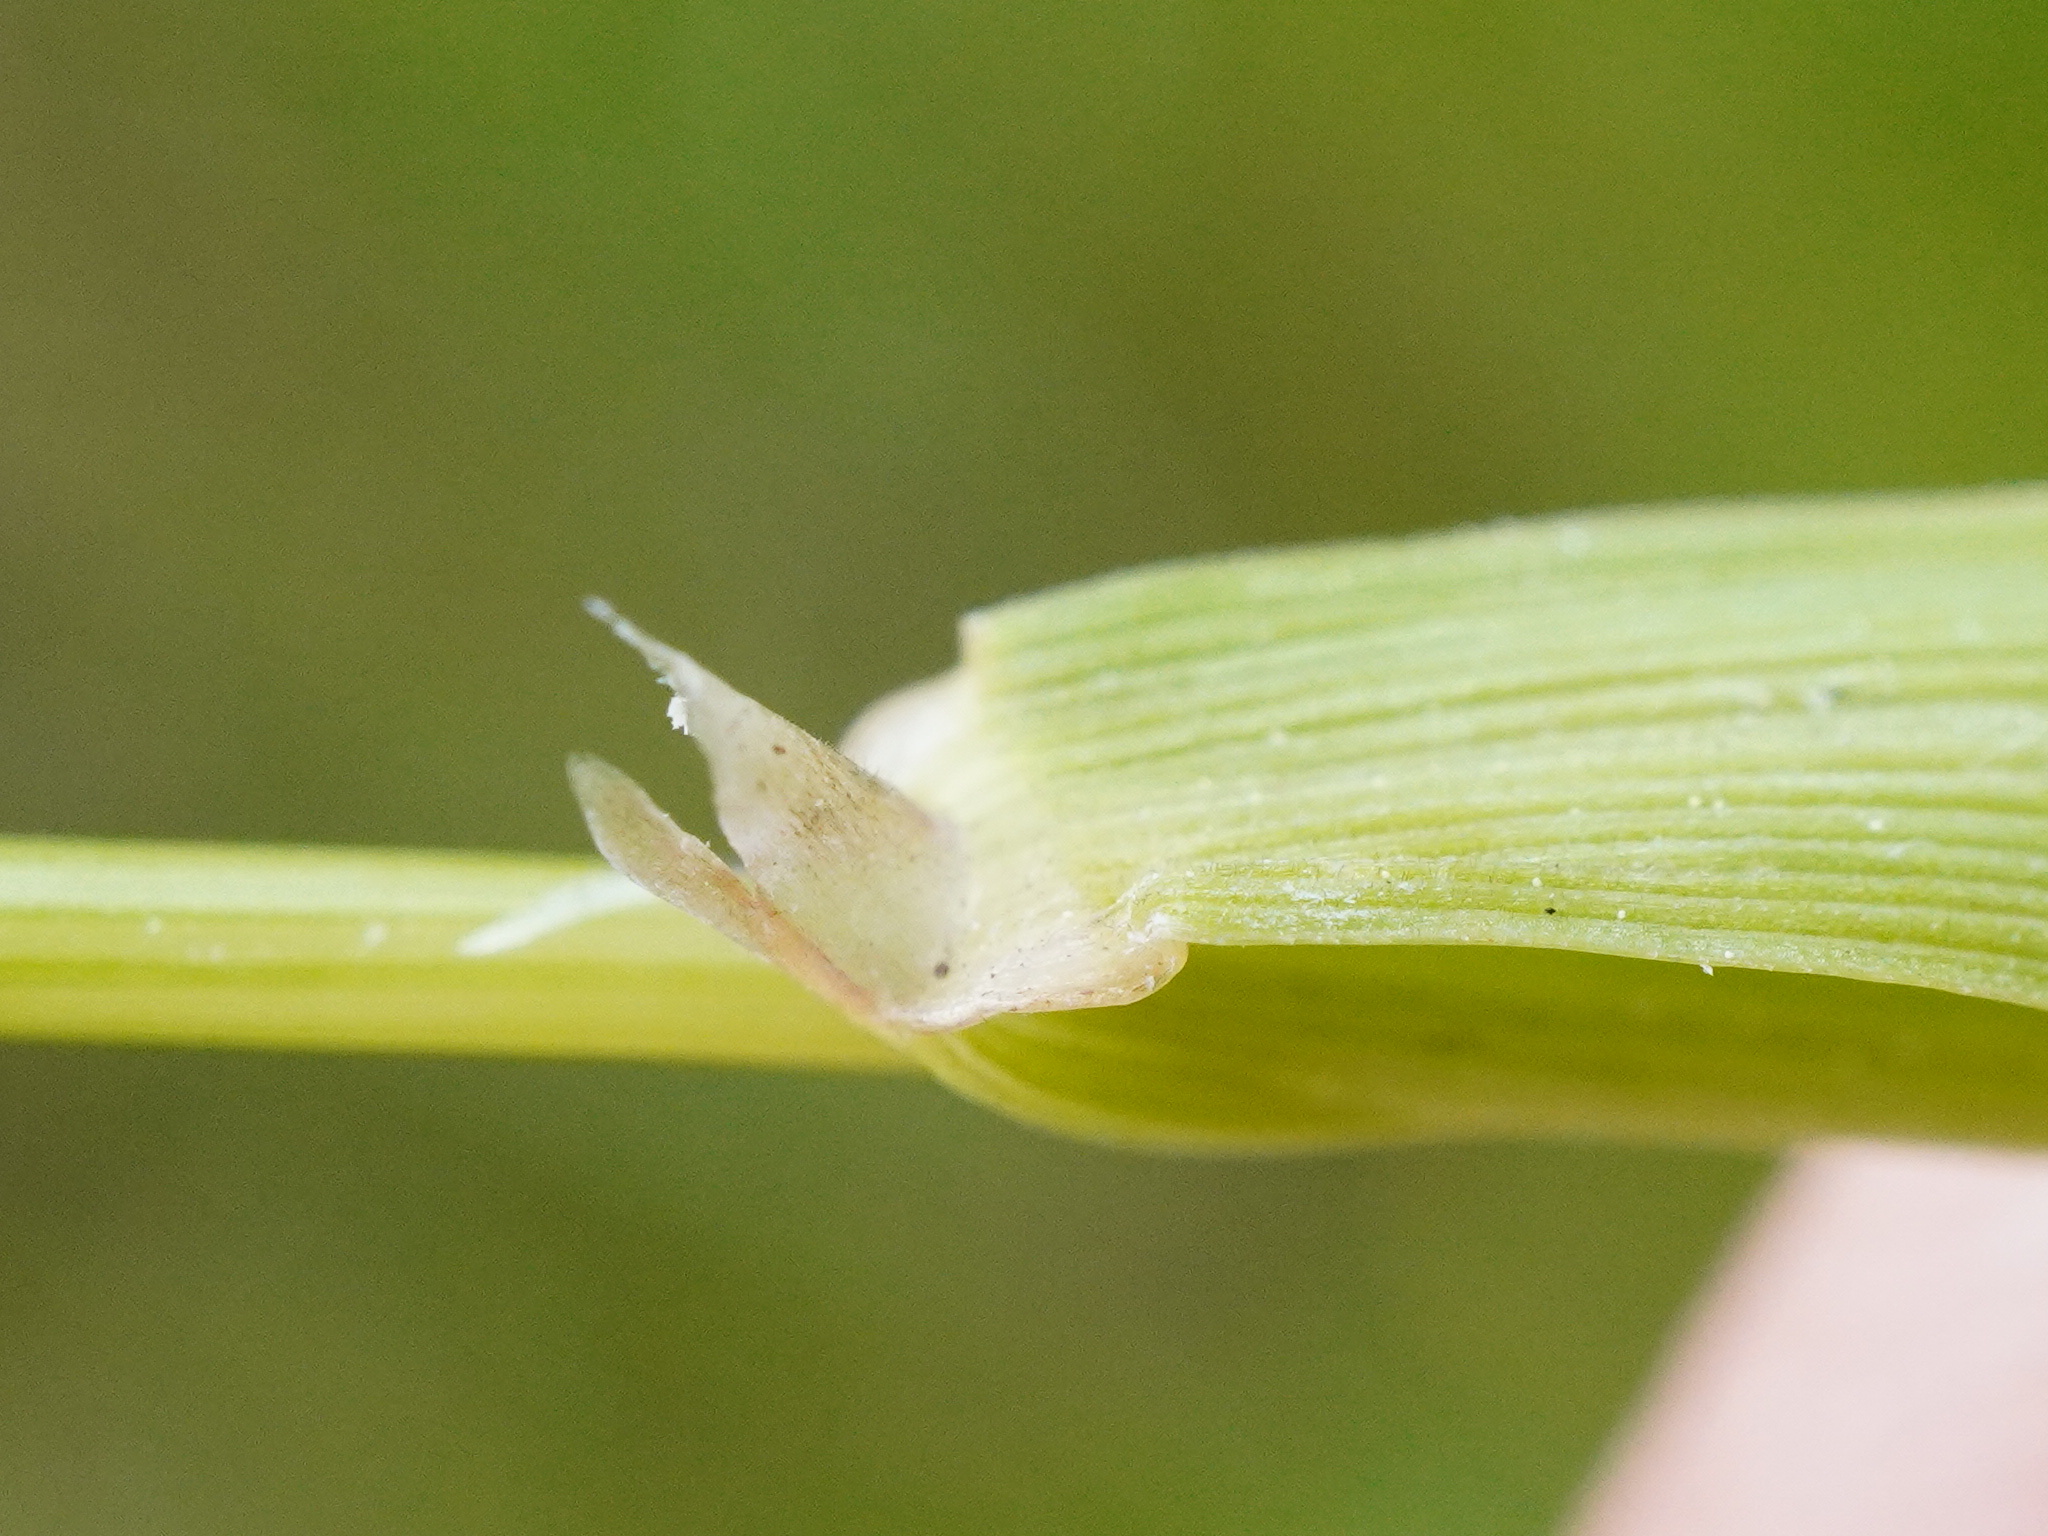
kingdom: Plantae
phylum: Tracheophyta
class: Liliopsida
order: Poales
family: Poaceae
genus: Agrostis
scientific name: Agrostis stolonifera
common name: Creeping bentgrass
